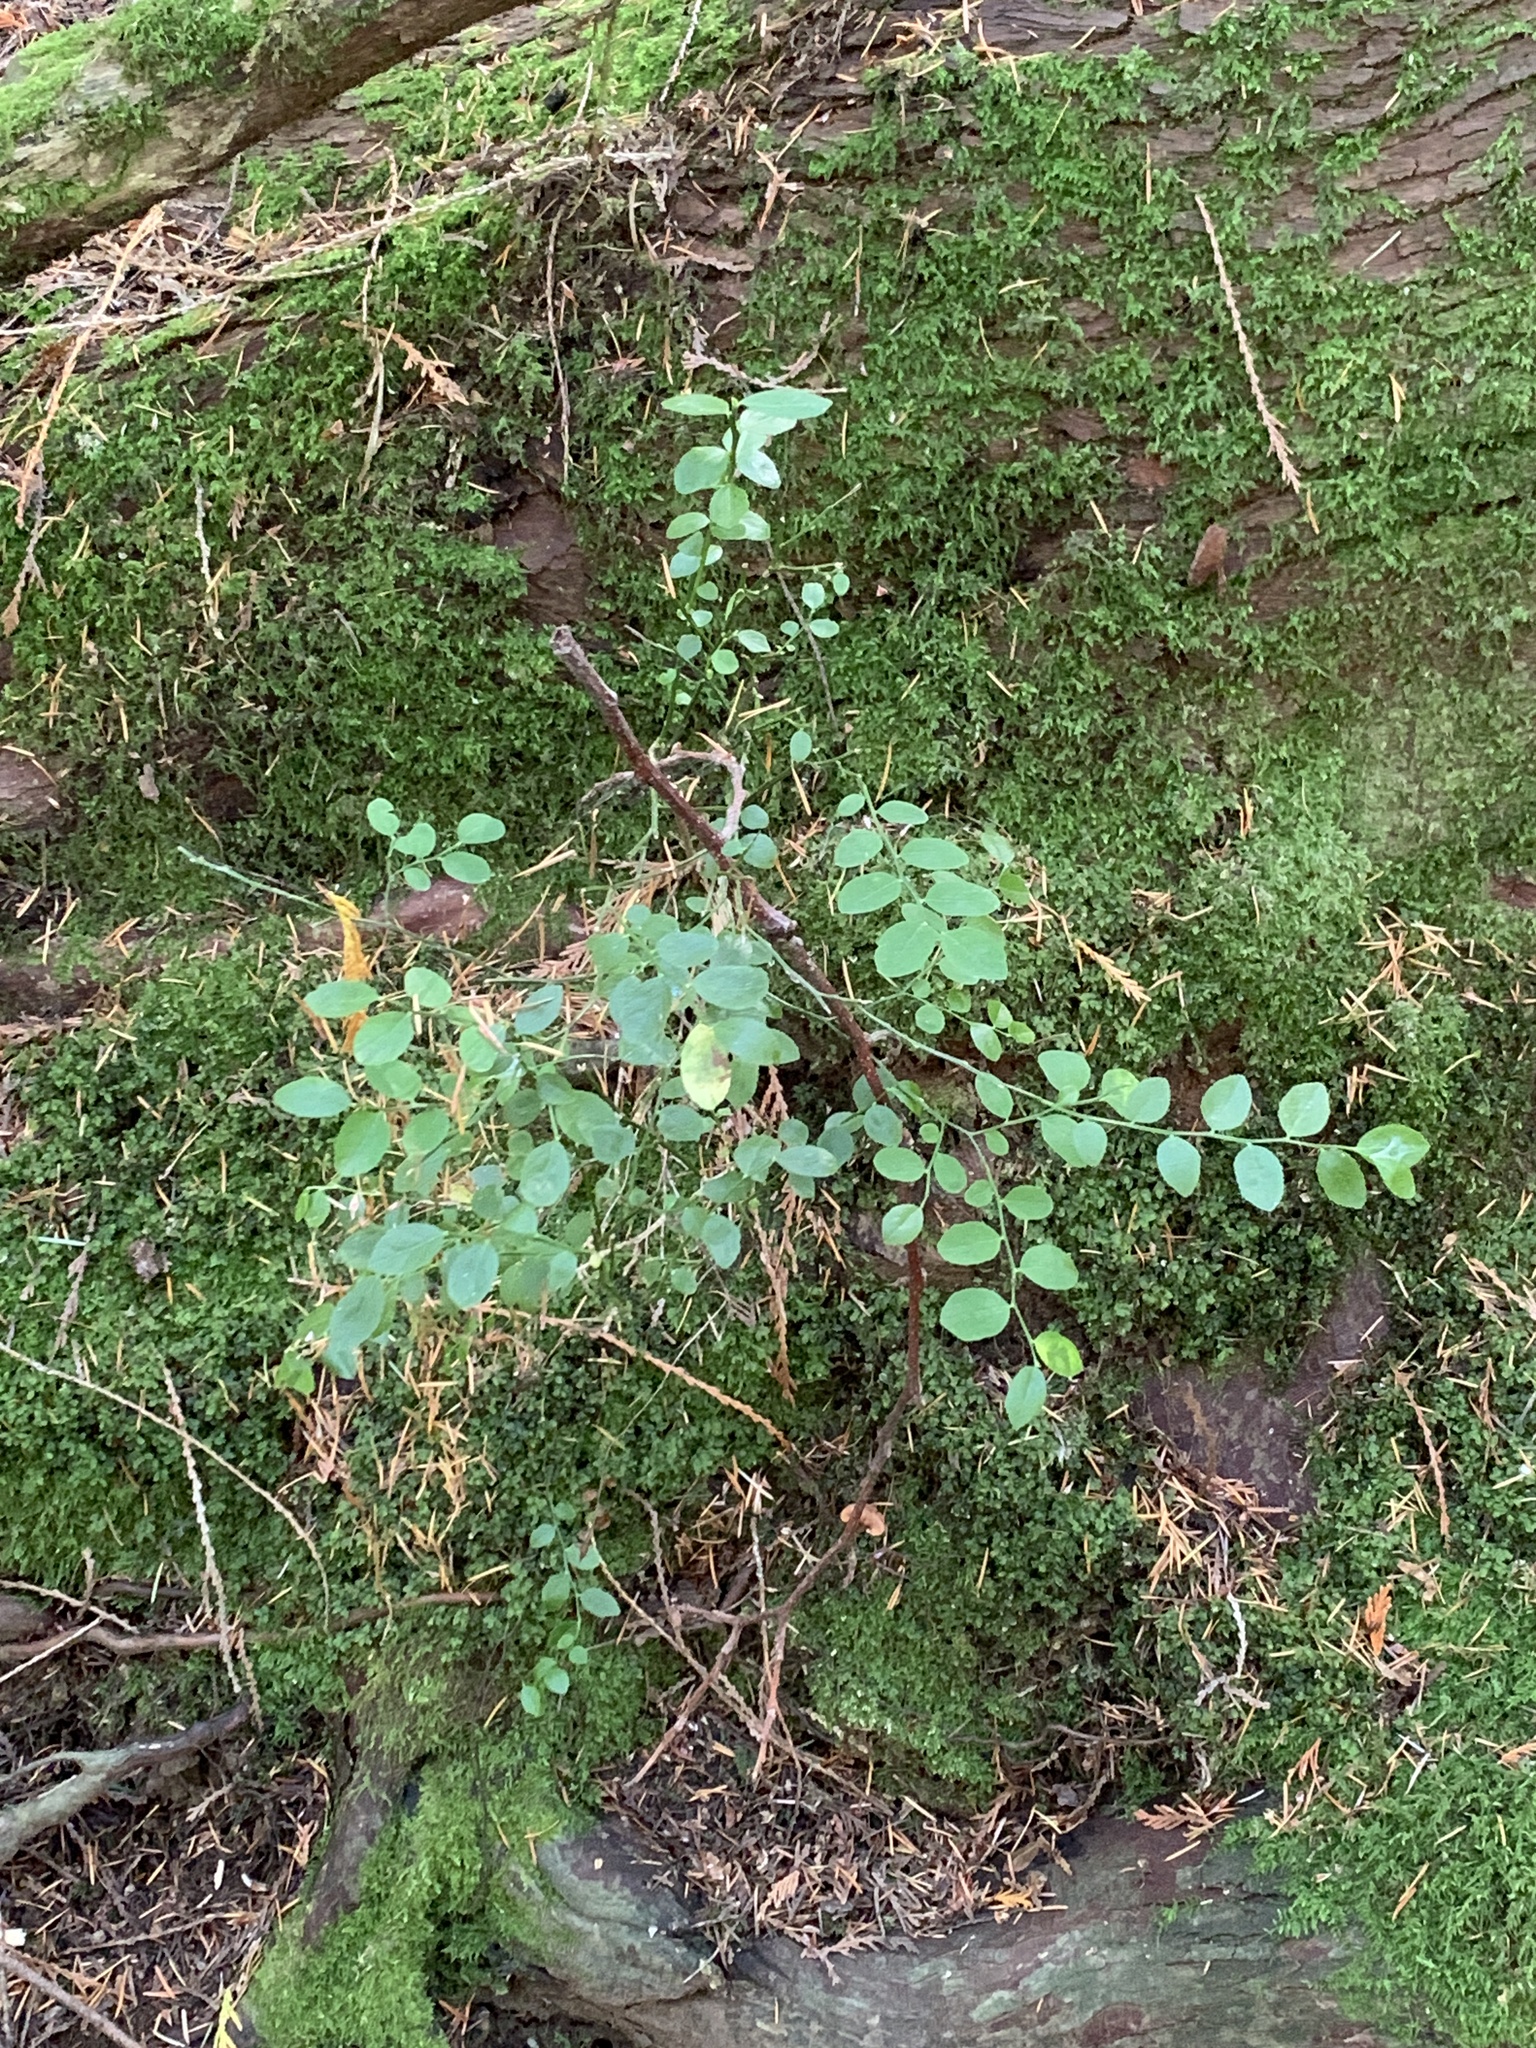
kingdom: Plantae
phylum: Tracheophyta
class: Magnoliopsida
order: Ericales
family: Ericaceae
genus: Vaccinium
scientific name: Vaccinium parvifolium
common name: Red-huckleberry
